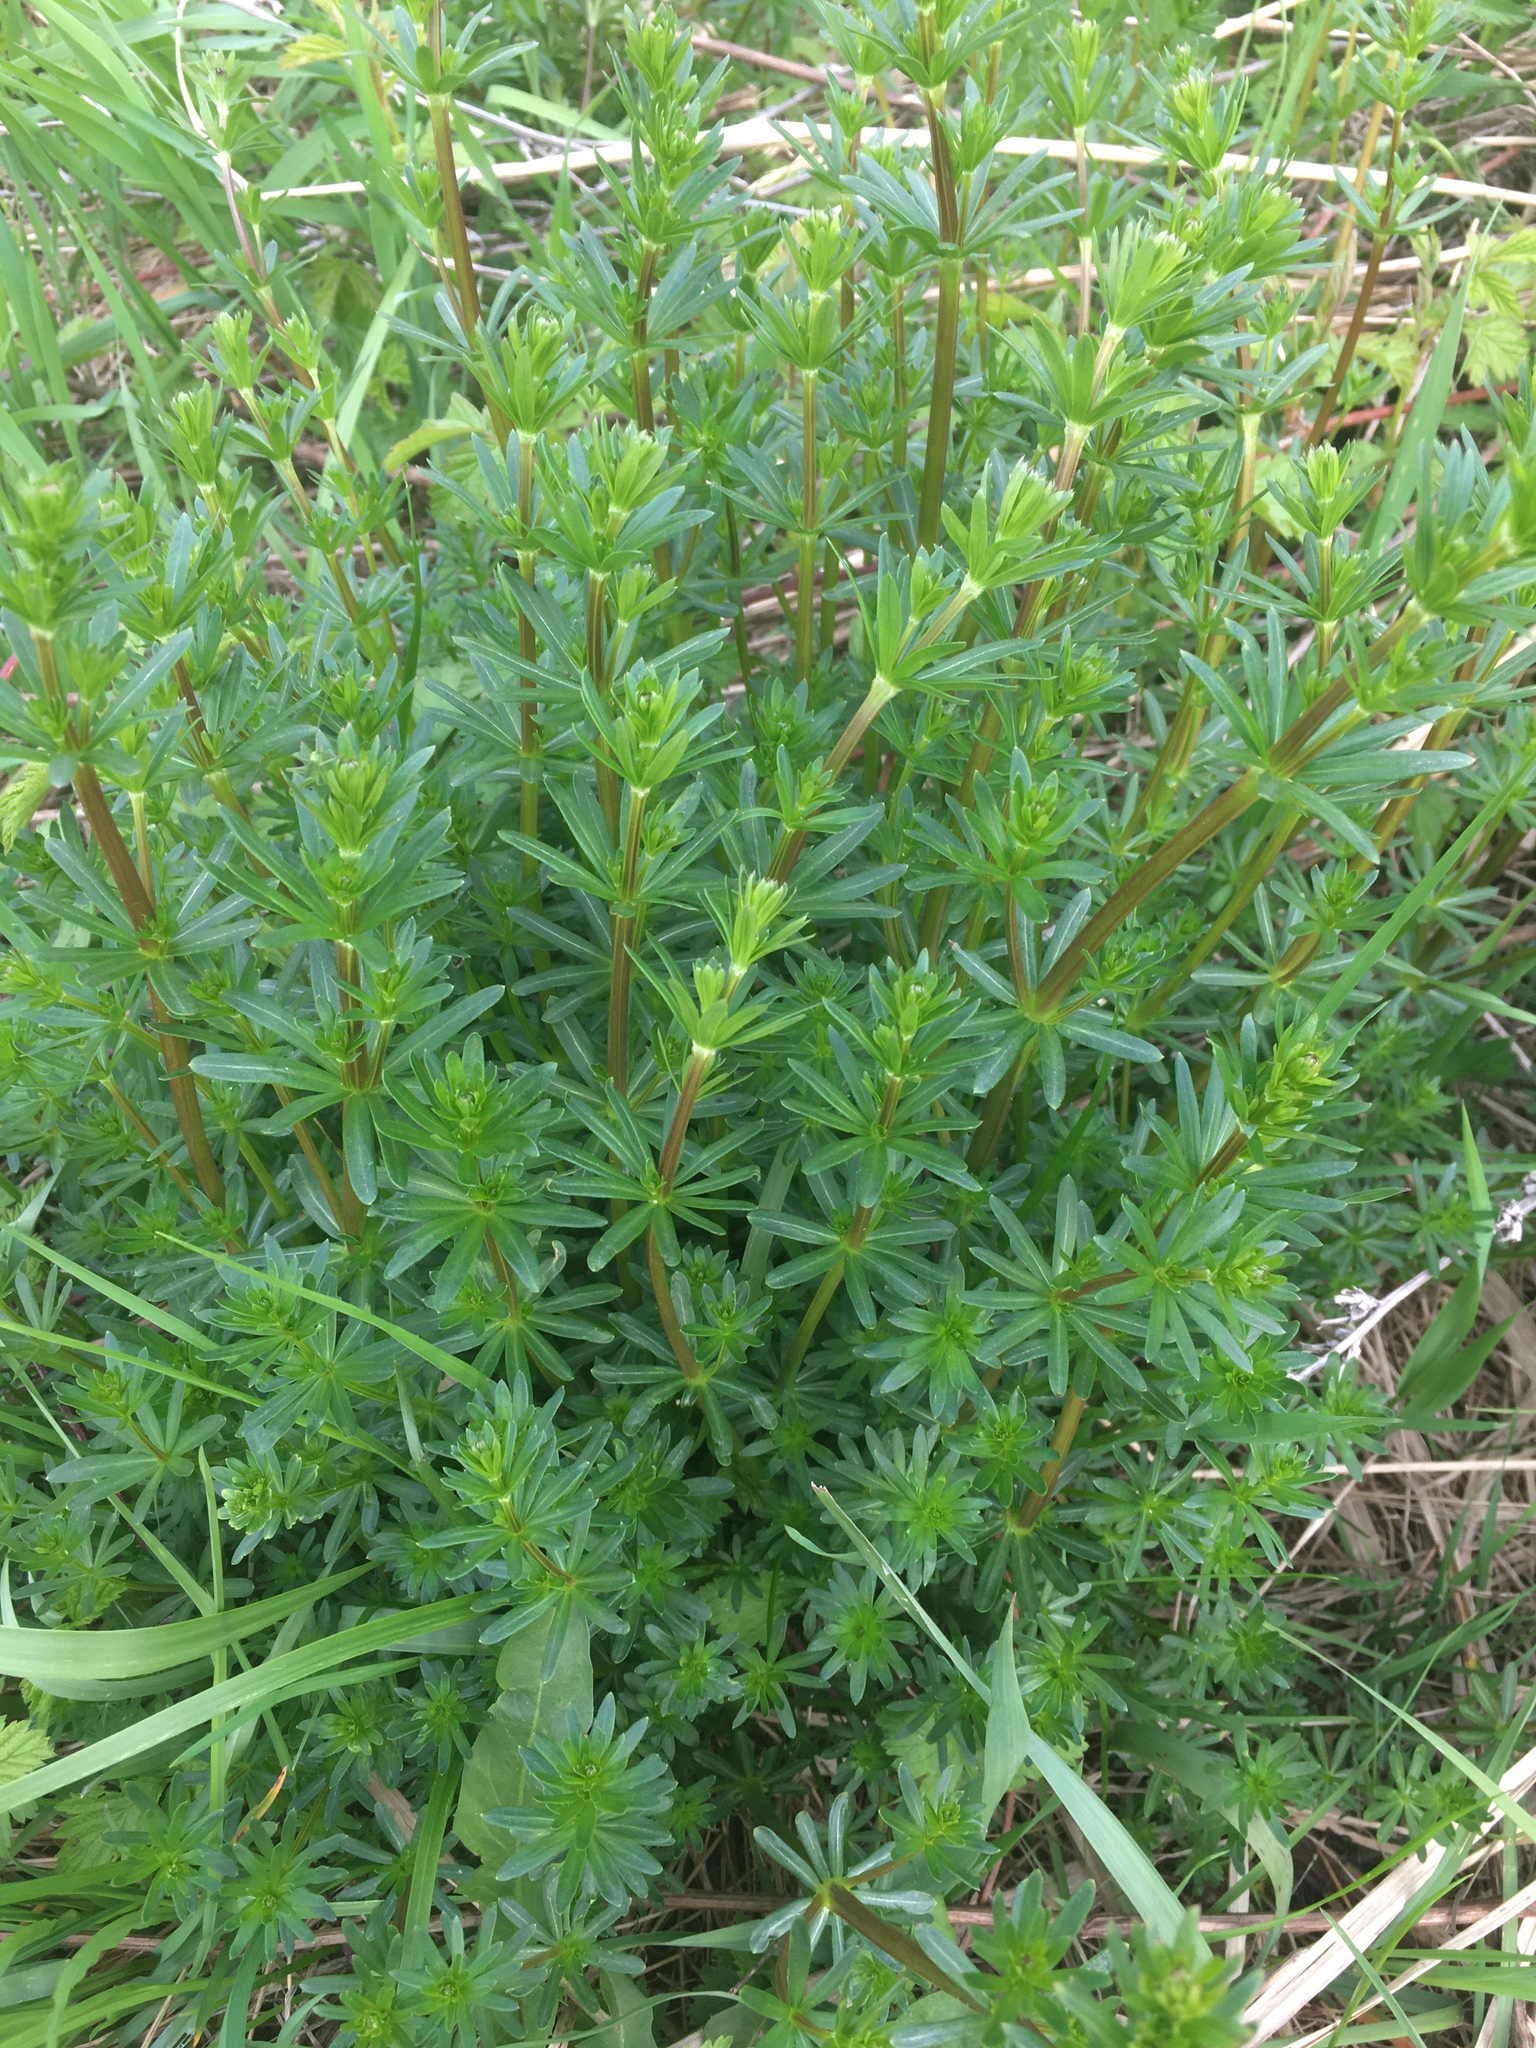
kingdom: Plantae
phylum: Tracheophyta
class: Magnoliopsida
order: Gentianales
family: Rubiaceae
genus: Galium
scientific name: Galium mollugo
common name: Hedge bedstraw
